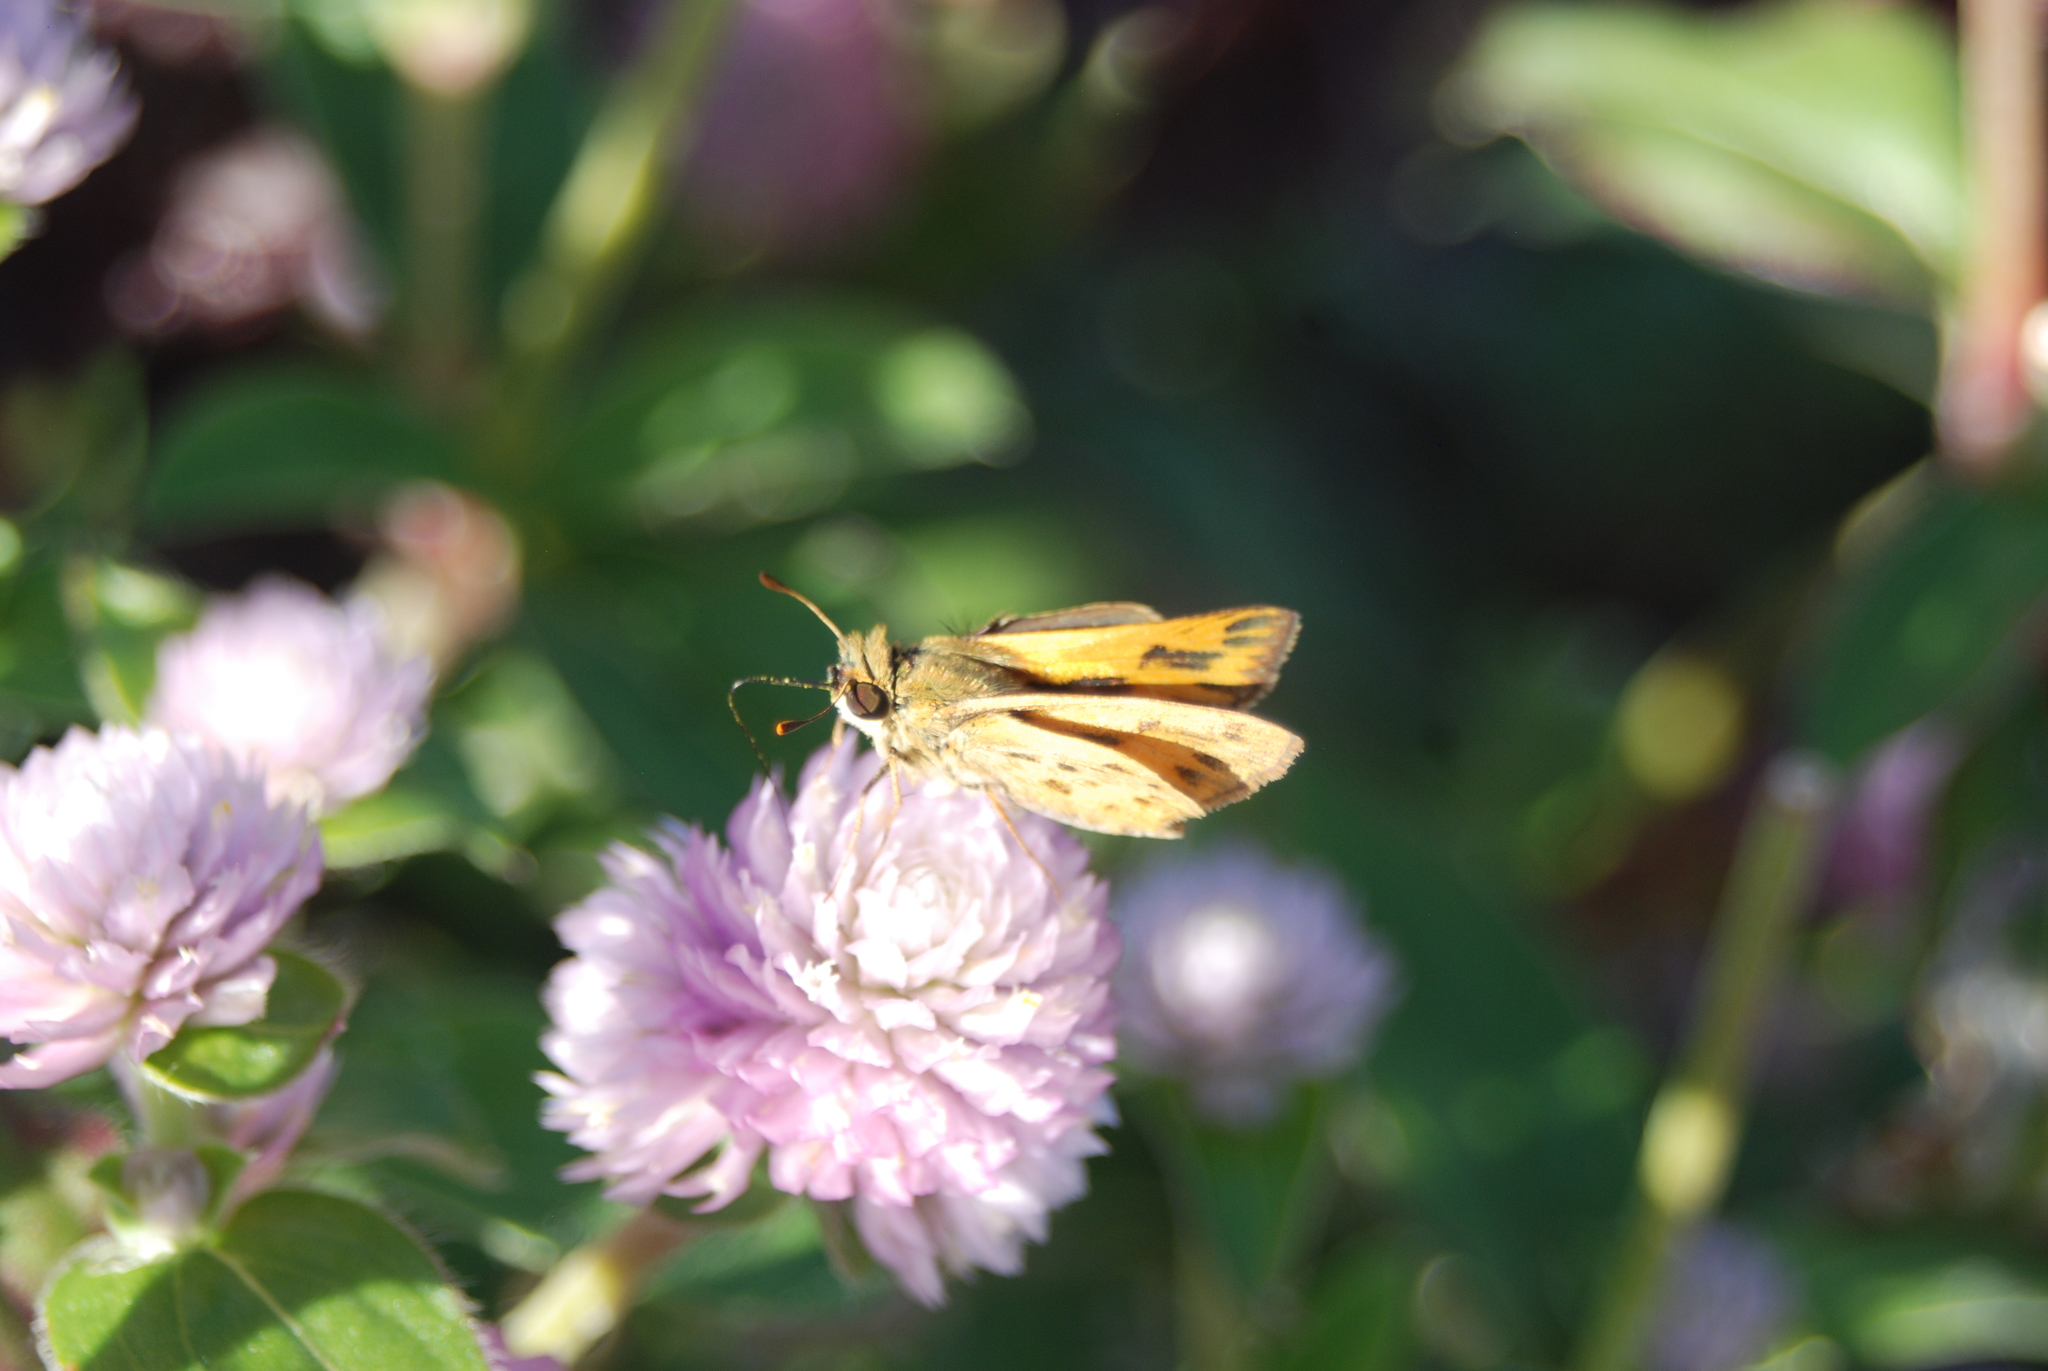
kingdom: Animalia
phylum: Arthropoda
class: Insecta
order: Lepidoptera
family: Hesperiidae
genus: Hylephila
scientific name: Hylephila phyleus
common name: Fiery skipper
